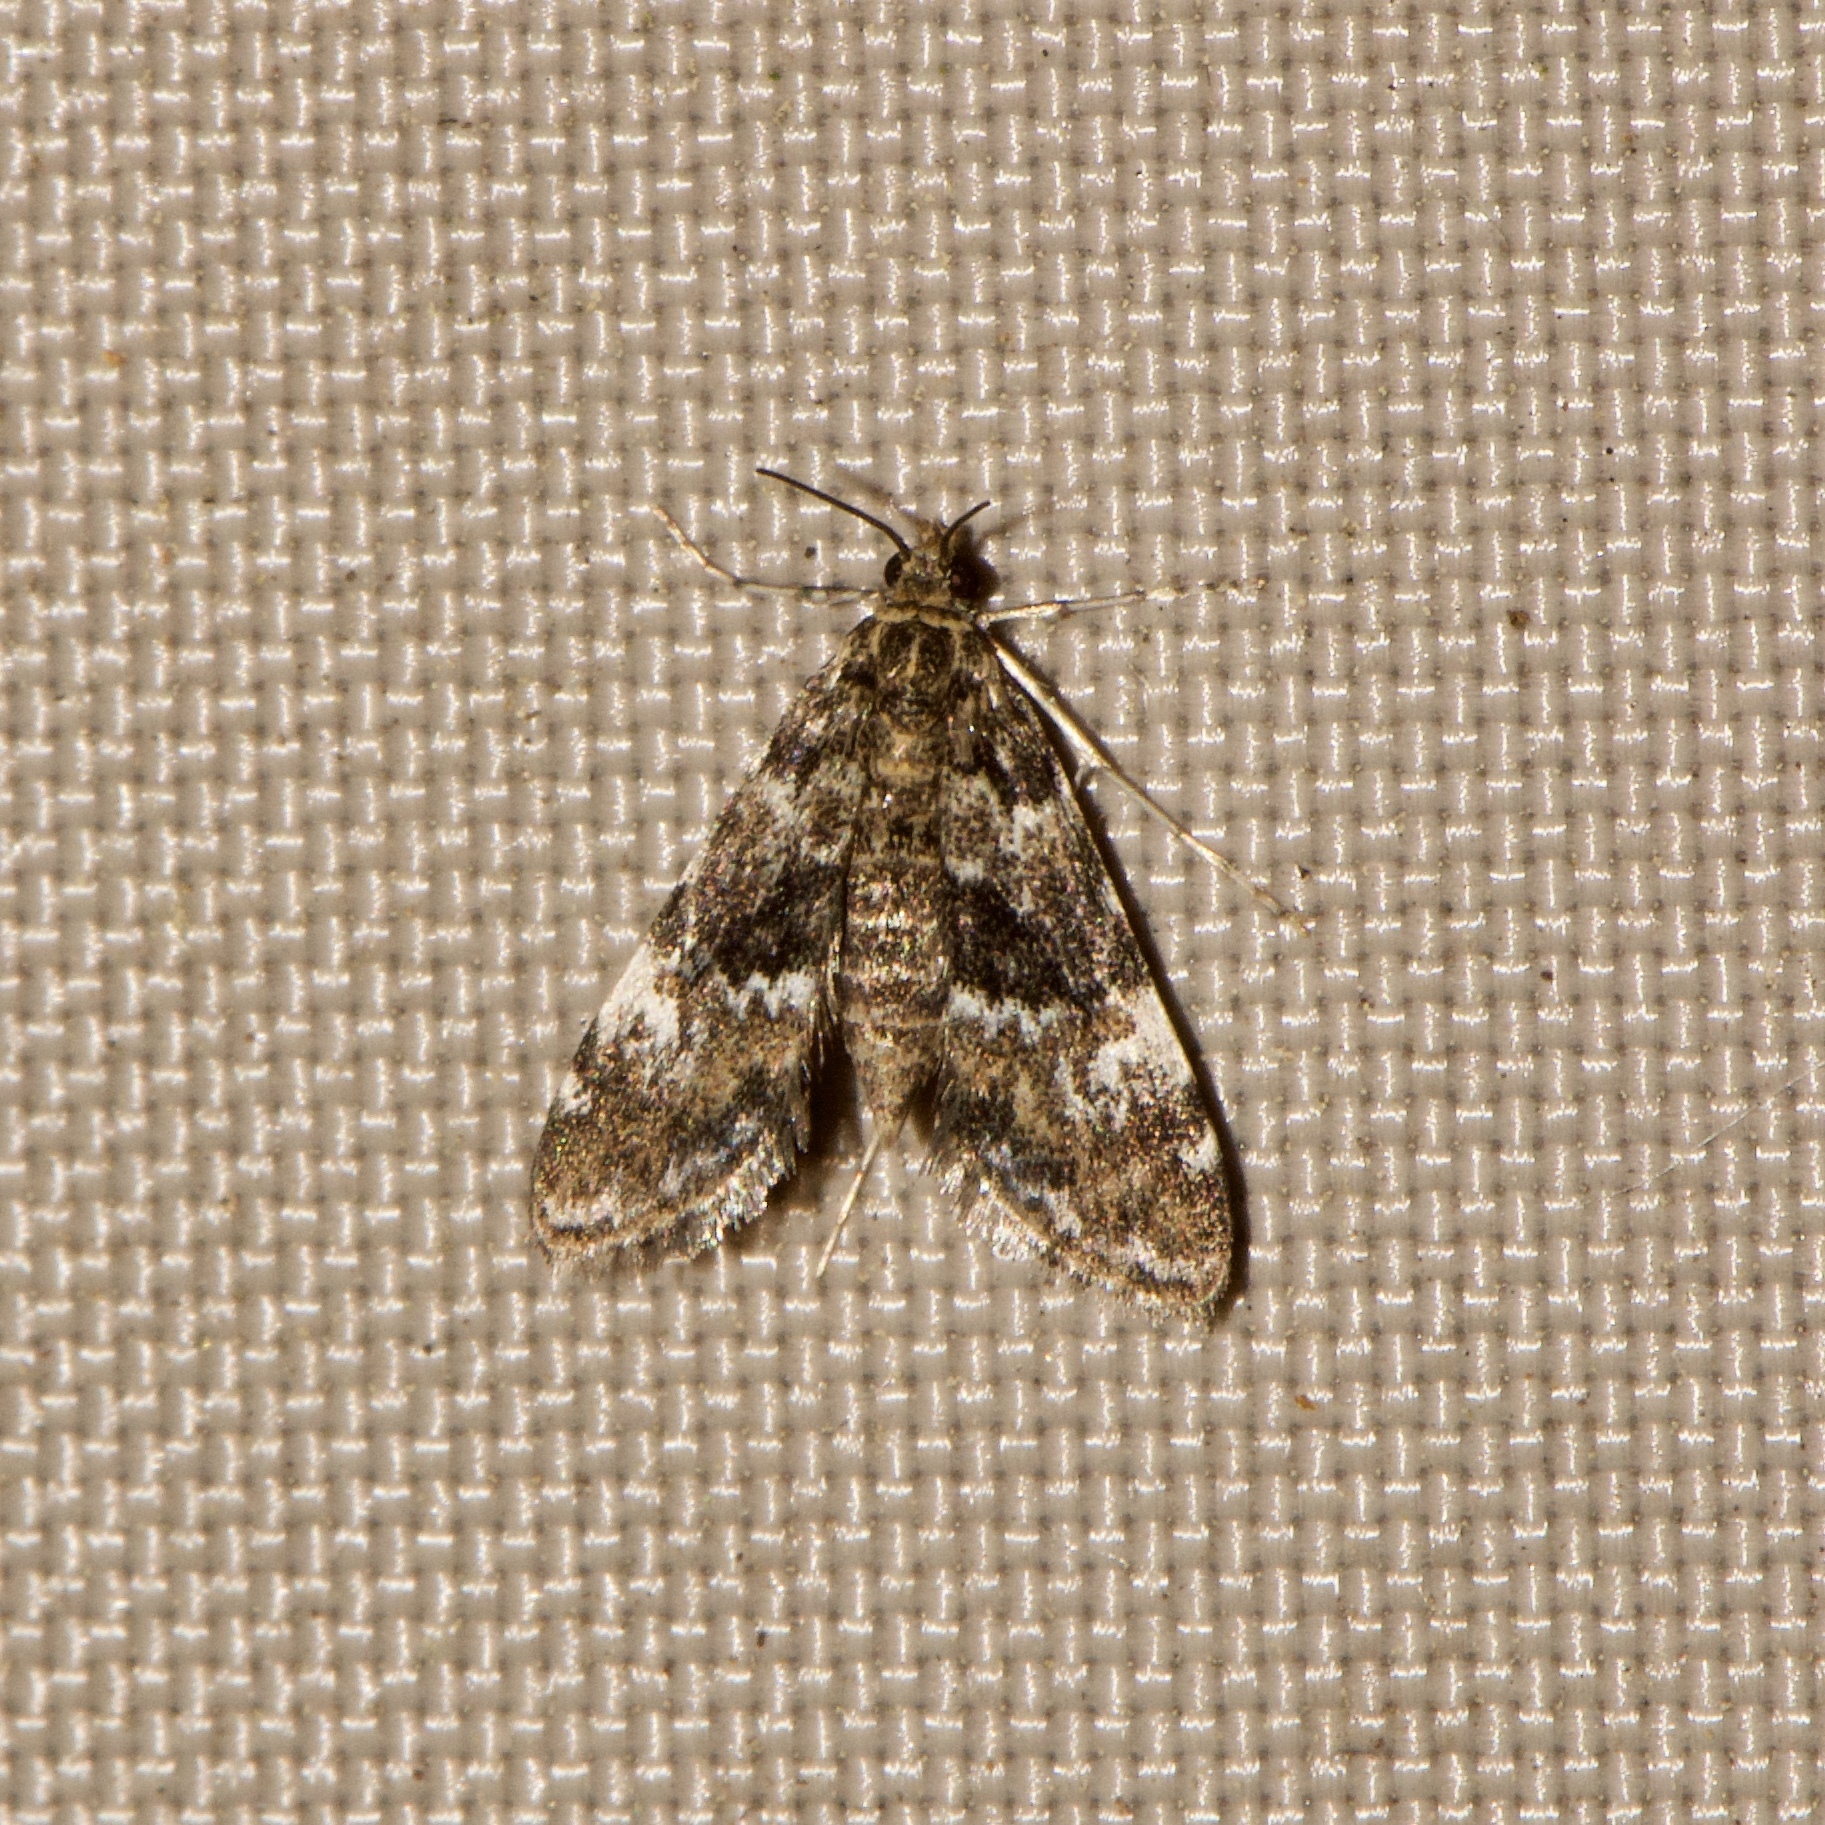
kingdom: Animalia
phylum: Arthropoda
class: Insecta
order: Lepidoptera
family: Crambidae
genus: Elophila
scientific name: Elophila obliteralis
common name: Waterlily leafcutter moth
